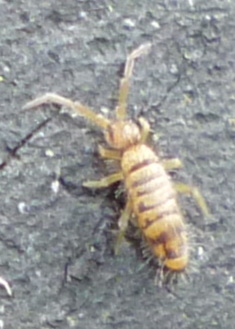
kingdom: Animalia
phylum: Arthropoda
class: Collembola
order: Entomobryomorpha
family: Entomobryidae
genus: Entomobrya
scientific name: Entomobrya multifasciata
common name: Springtail
